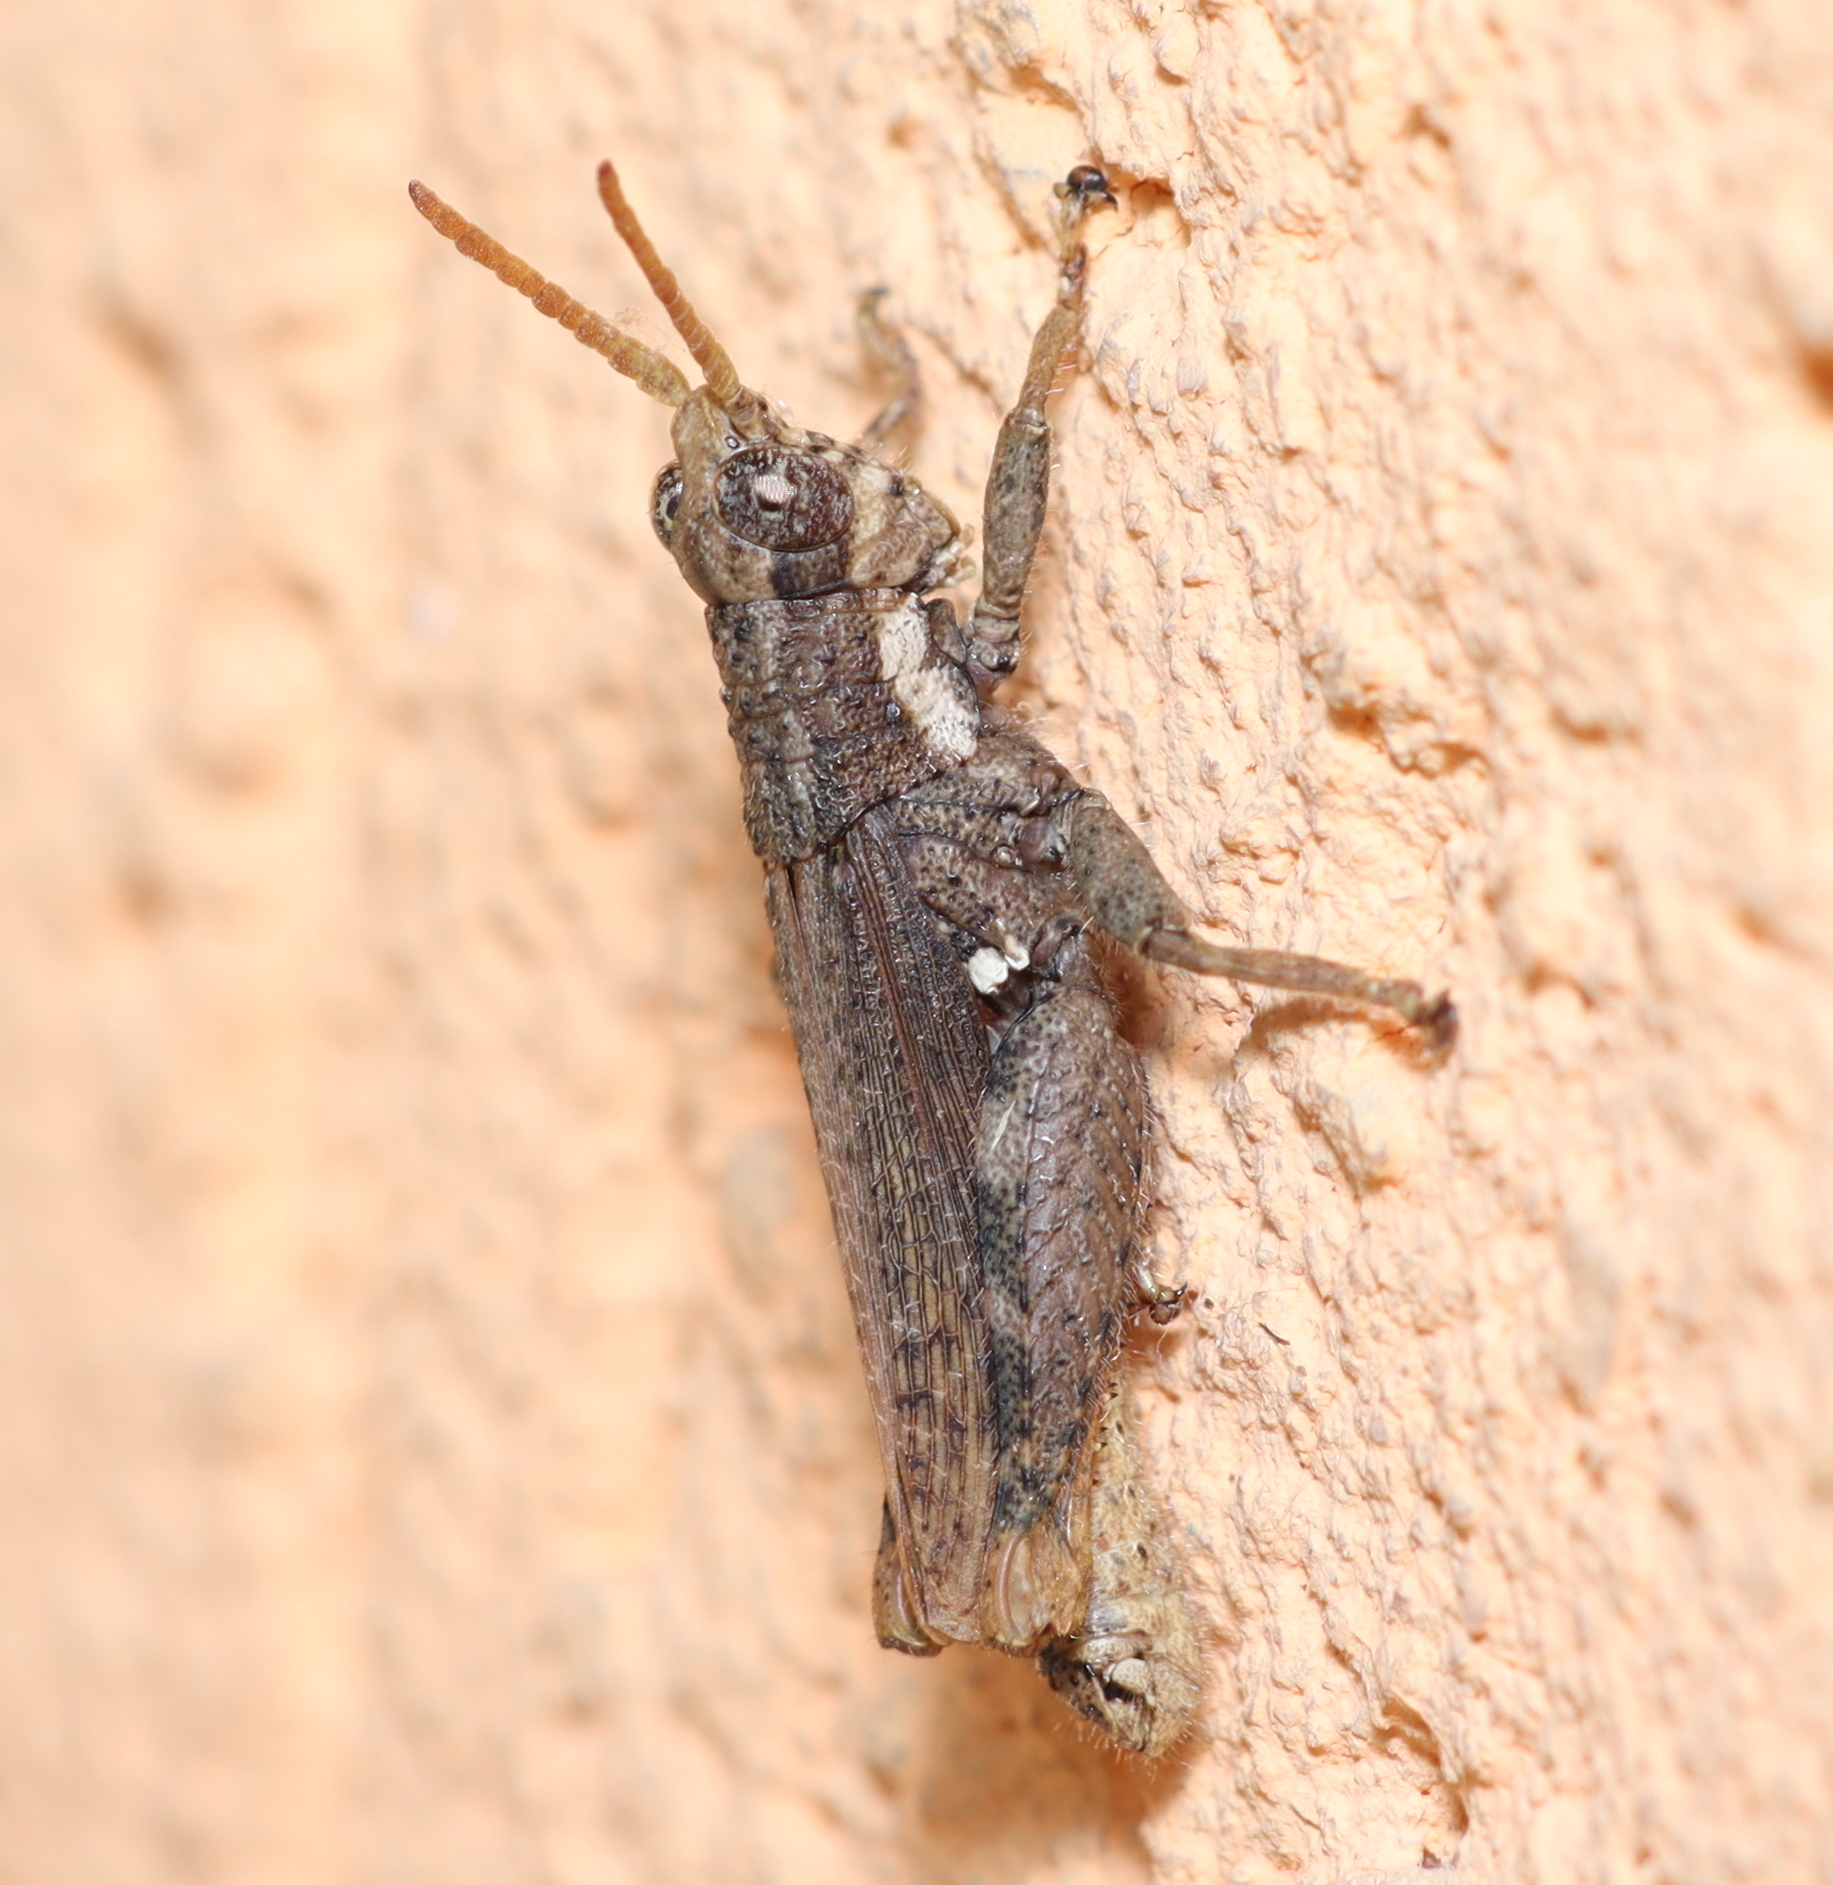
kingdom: Animalia
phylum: Arthropoda
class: Insecta
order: Orthoptera
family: Acrididae
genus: Vilerna
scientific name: Vilerna rugulosa
